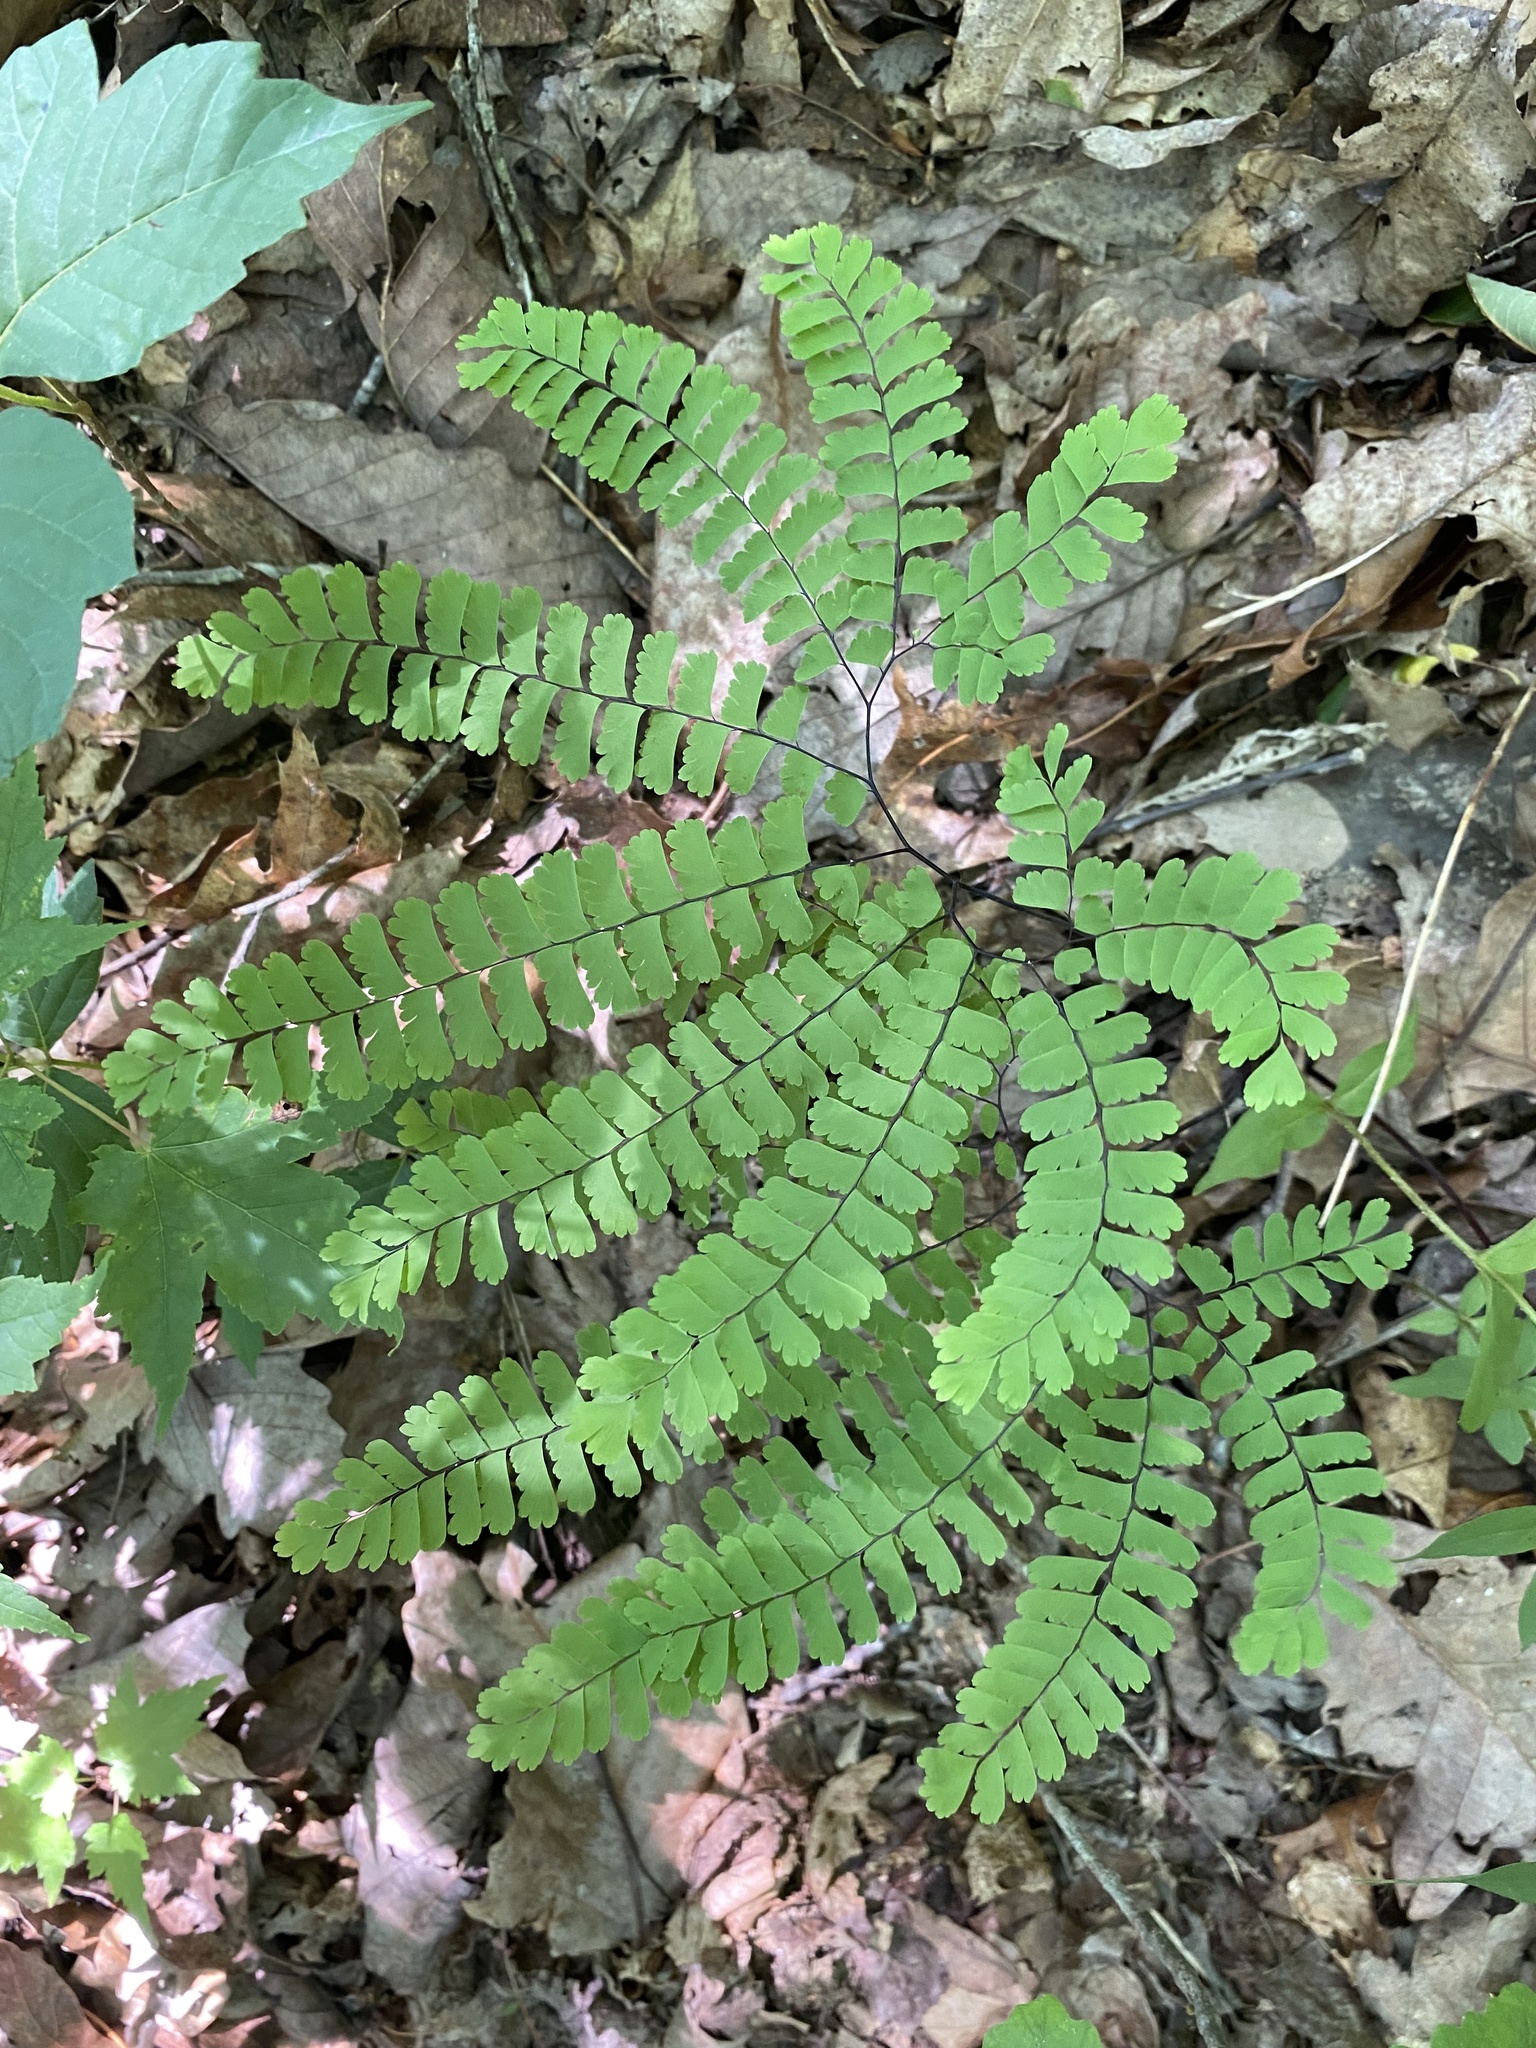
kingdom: Plantae
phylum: Tracheophyta
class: Polypodiopsida
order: Polypodiales
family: Pteridaceae
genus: Adiantum
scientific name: Adiantum pedatum
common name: Five-finger fern
